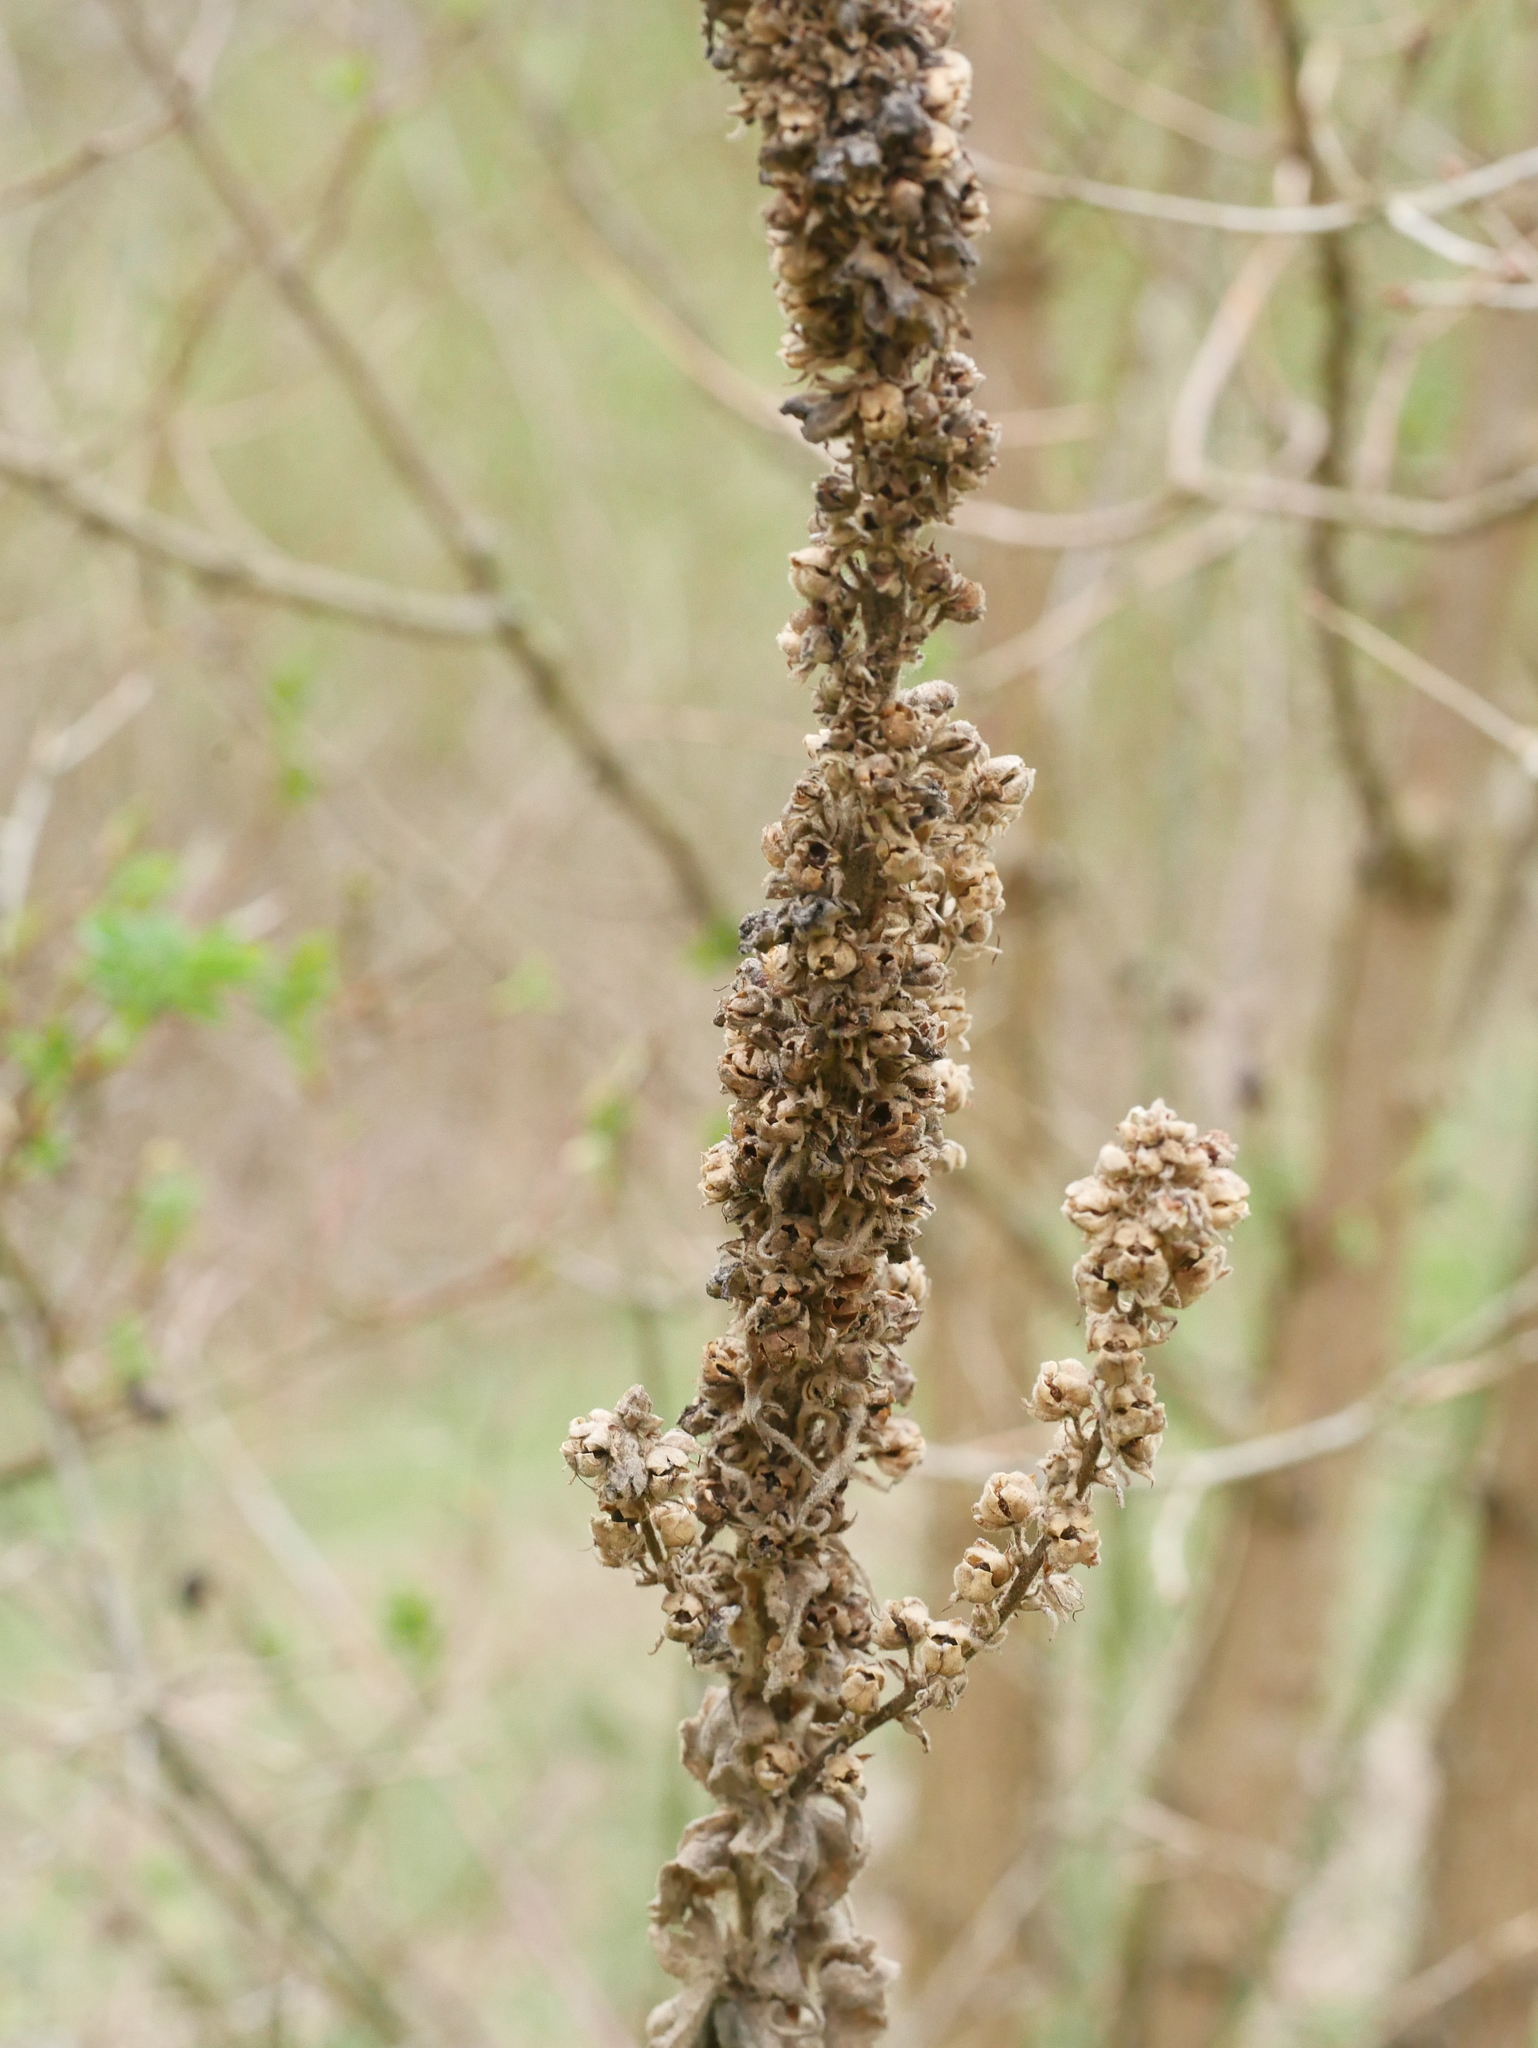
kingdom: Plantae
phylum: Tracheophyta
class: Magnoliopsida
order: Lamiales
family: Scrophulariaceae
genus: Verbascum
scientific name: Verbascum thapsus
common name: Common mullein
